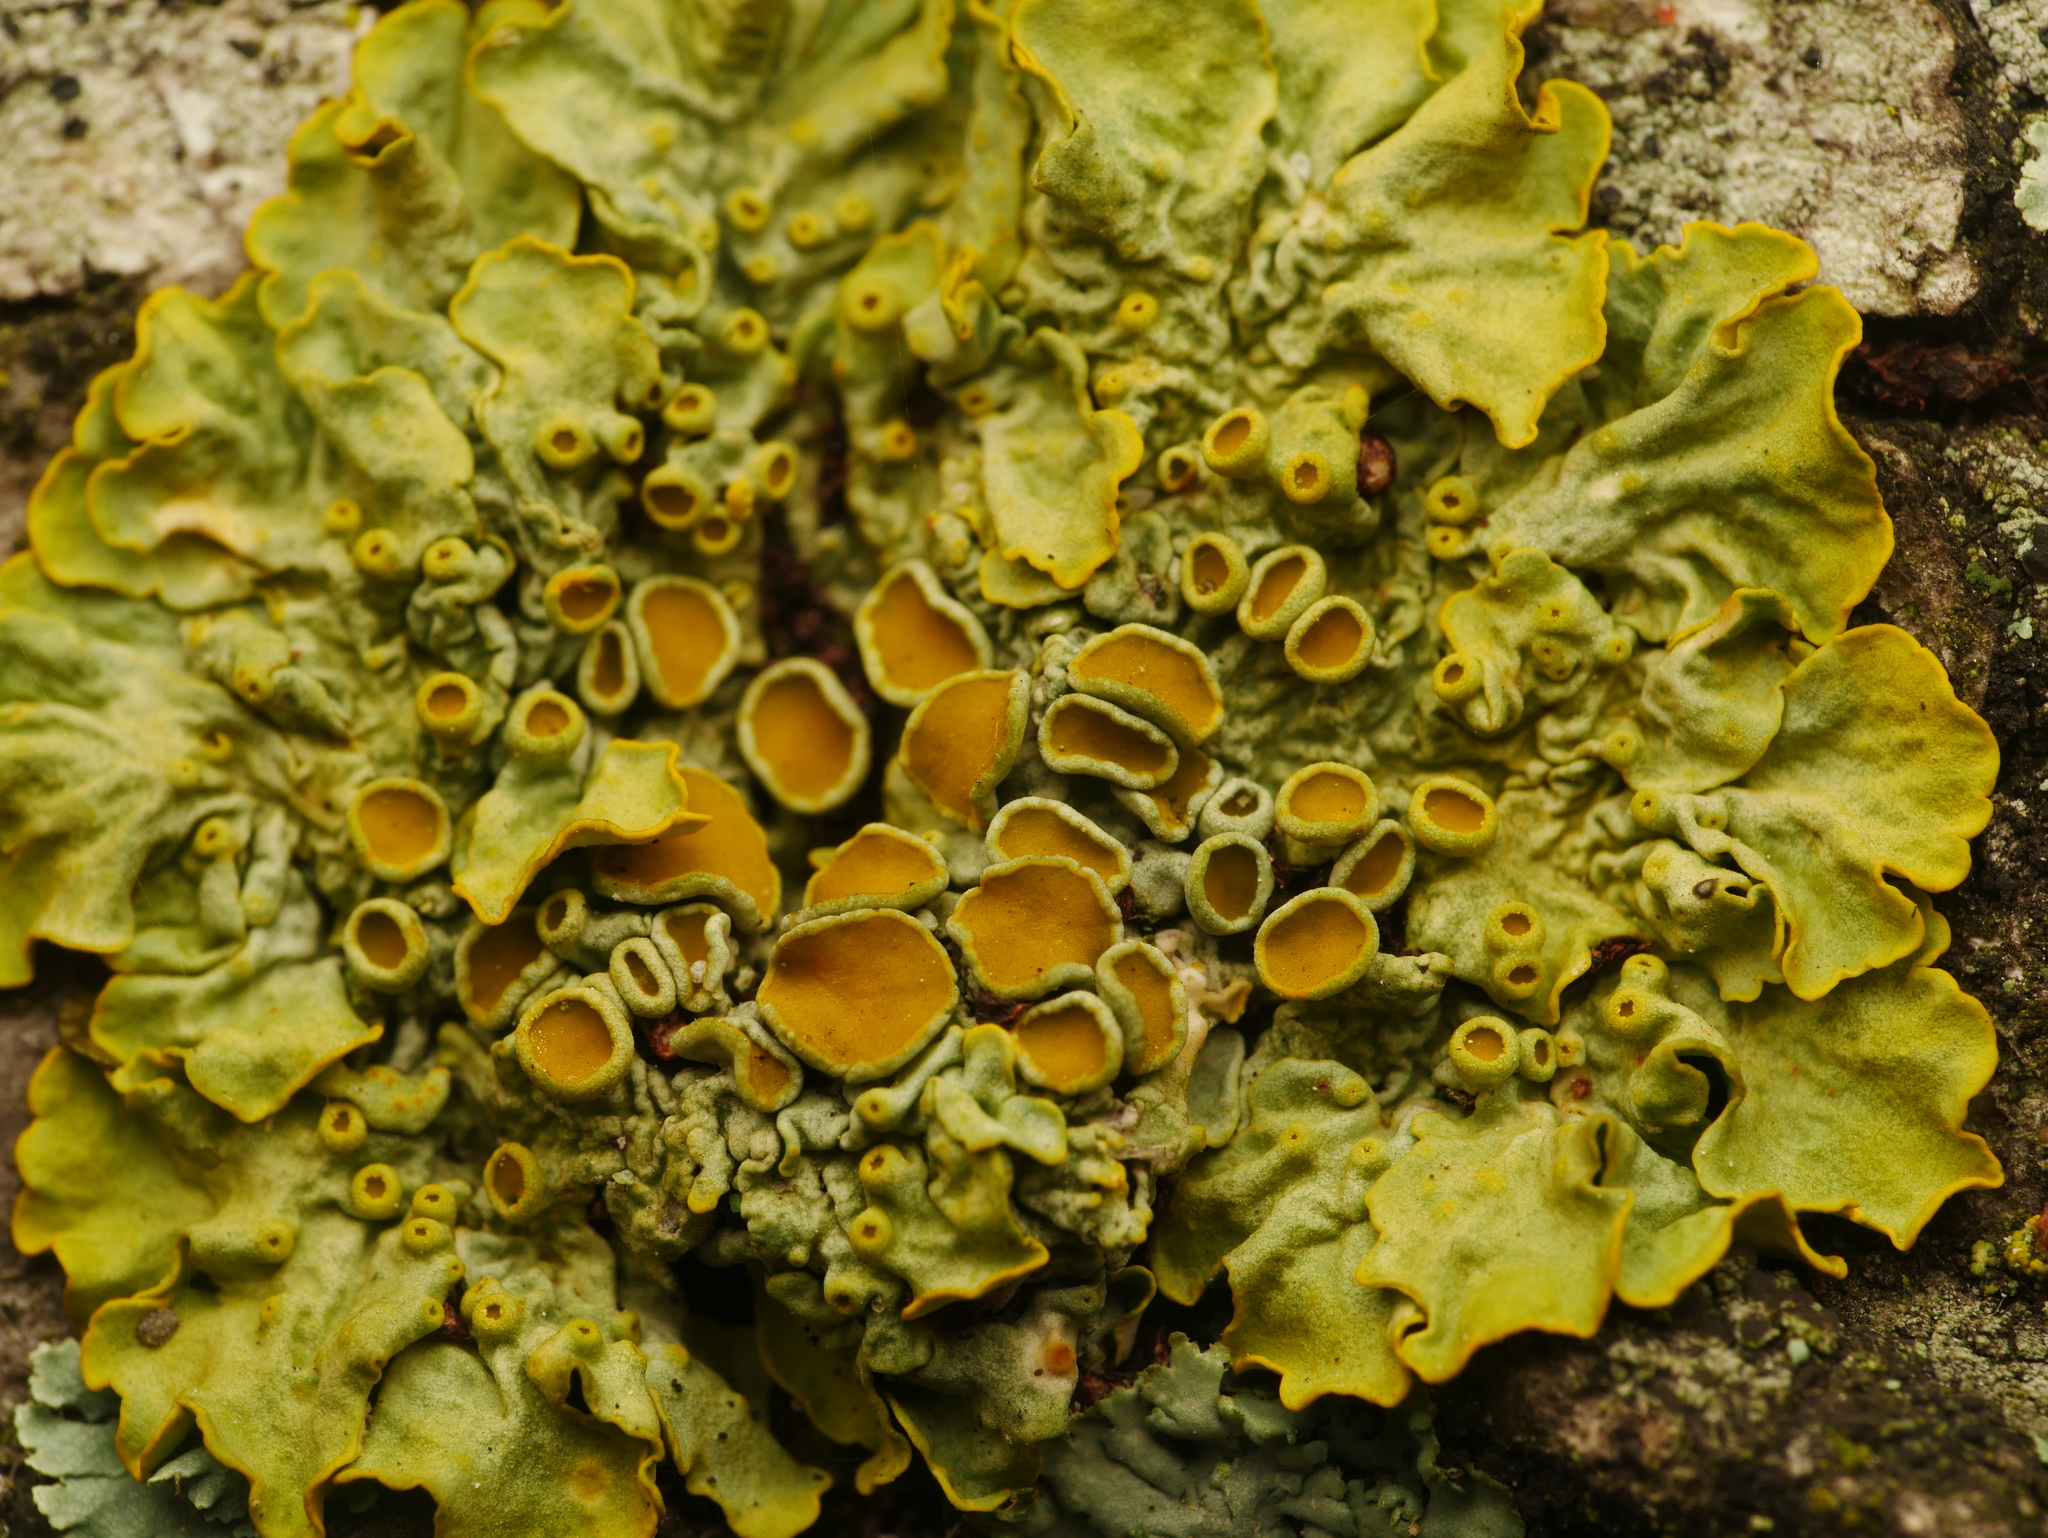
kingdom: Fungi
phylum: Ascomycota
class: Lecanoromycetes
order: Teloschistales
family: Teloschistaceae
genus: Xanthoria
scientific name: Xanthoria parietina
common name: Common orange lichen
